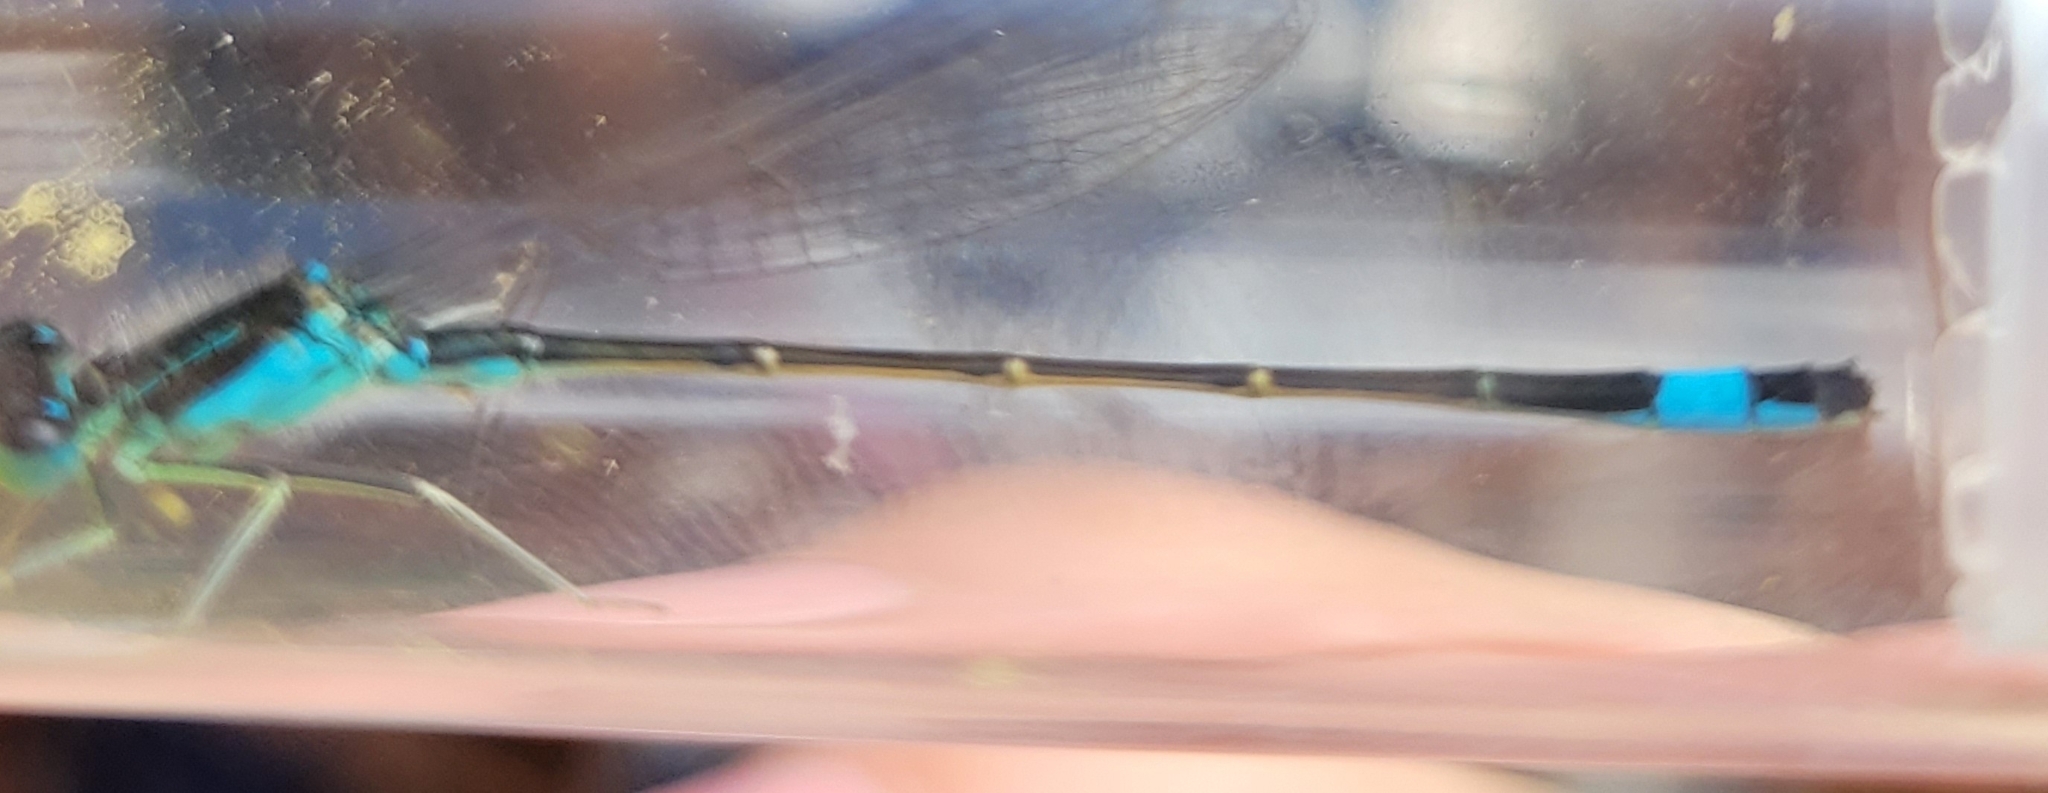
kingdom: Animalia
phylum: Arthropoda
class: Insecta
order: Odonata
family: Coenagrionidae
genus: Ischnura
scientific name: Ischnura elegans
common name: Blue-tailed damselfly
